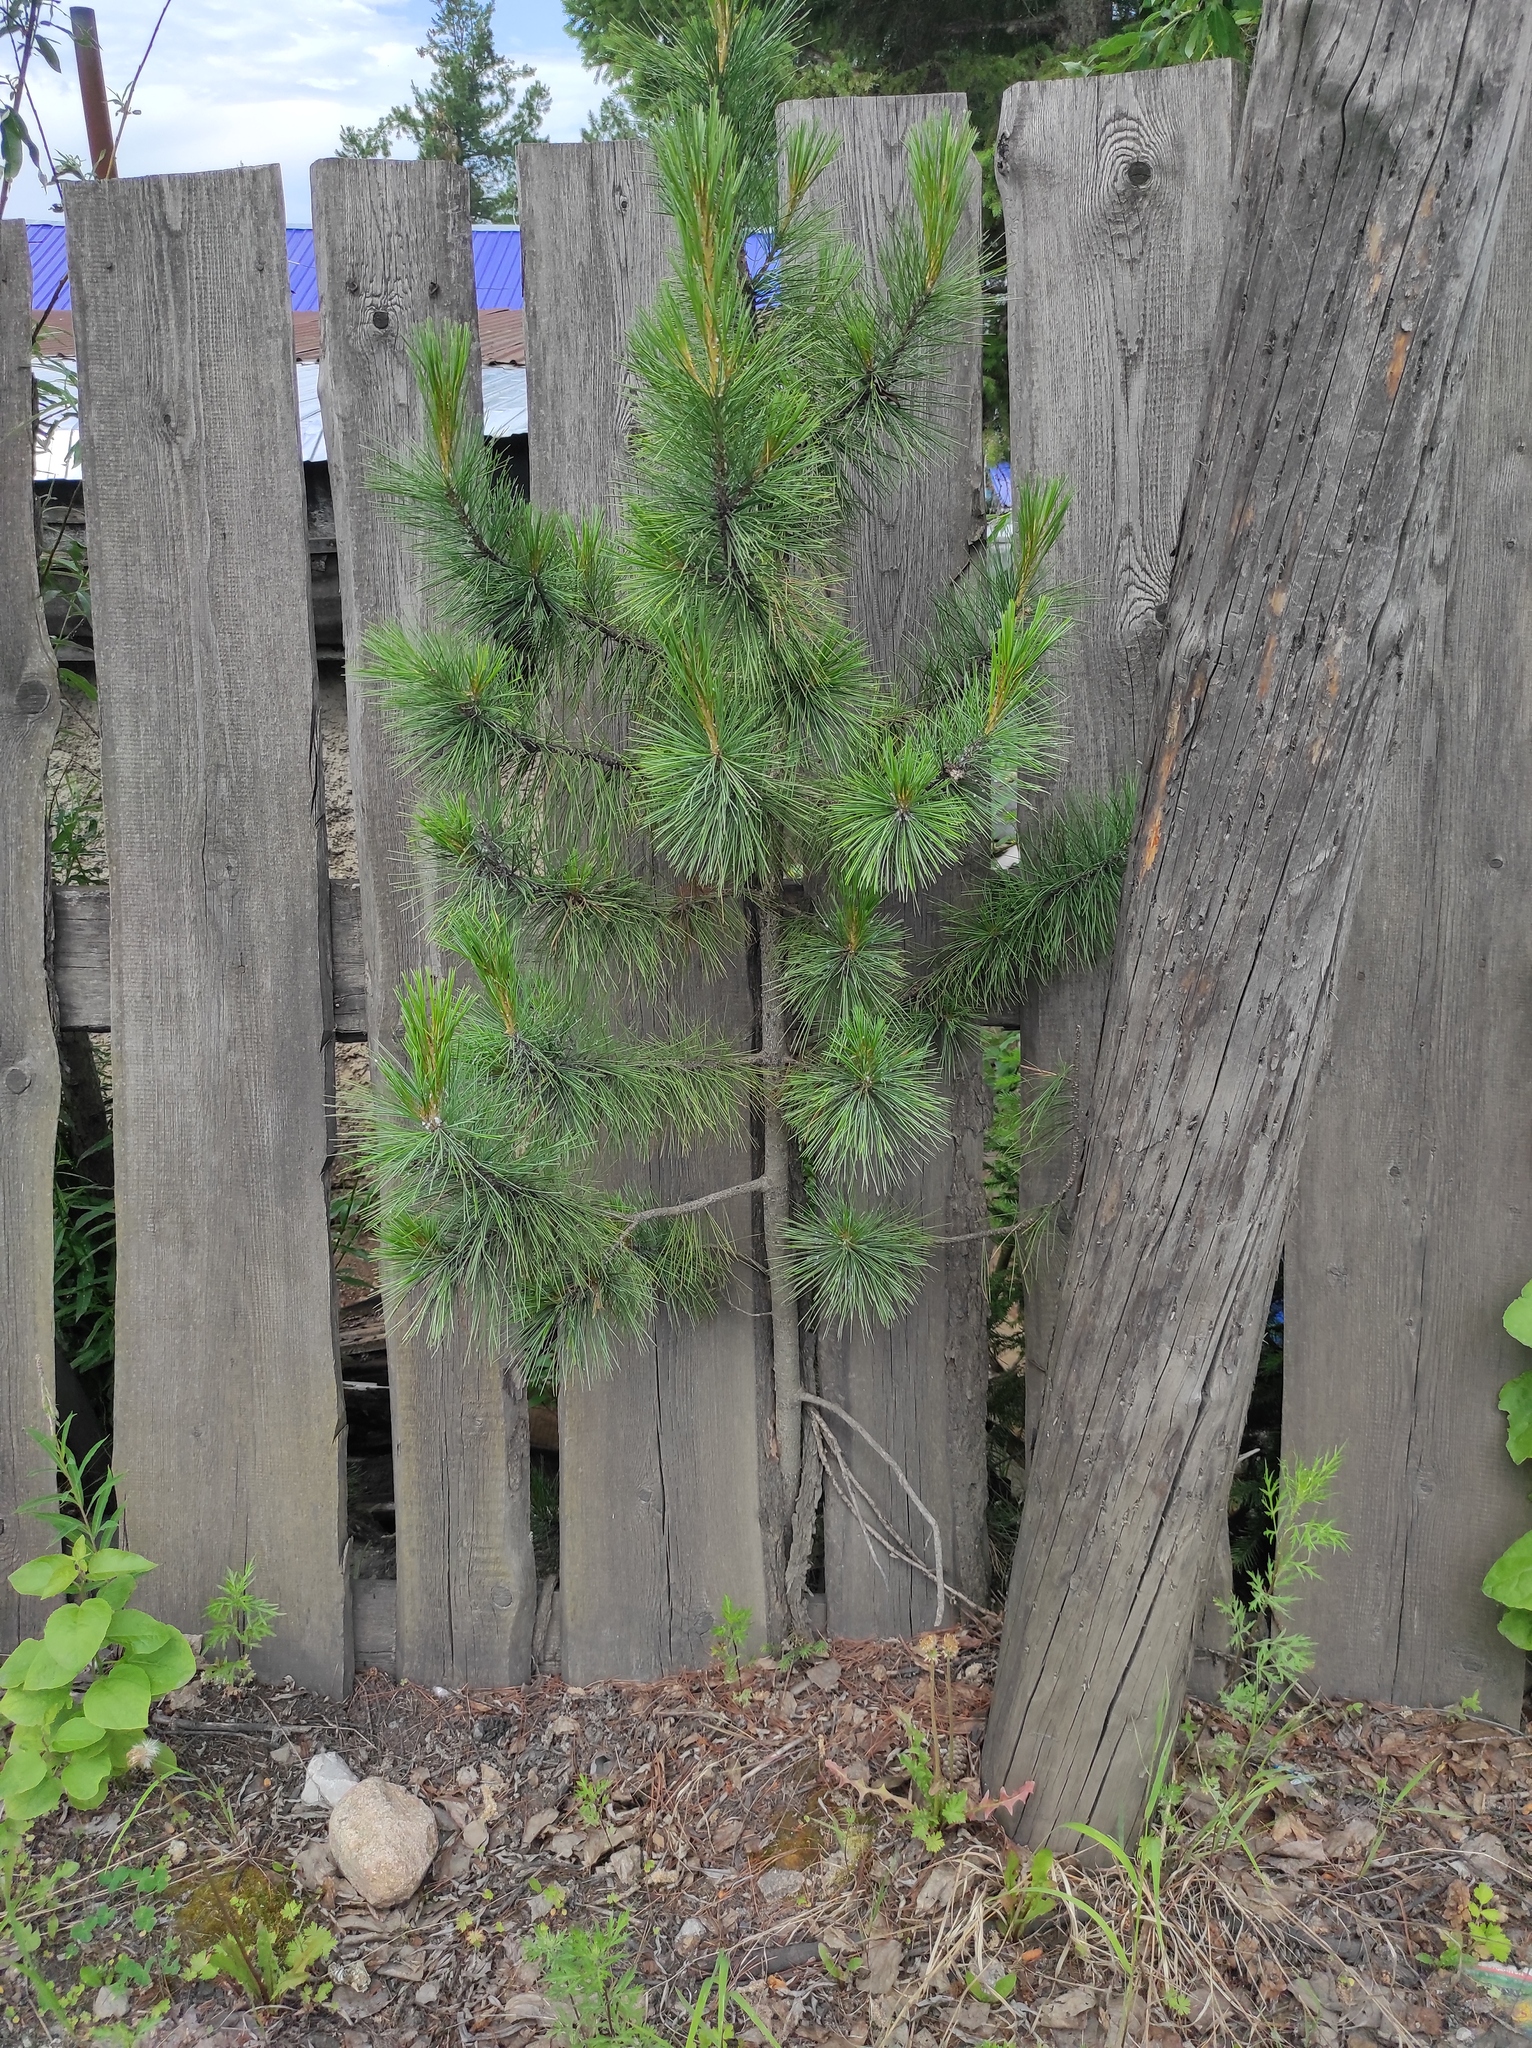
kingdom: Plantae
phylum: Tracheophyta
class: Pinopsida
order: Pinales
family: Pinaceae
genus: Pinus
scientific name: Pinus sibirica
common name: Siberian pine
